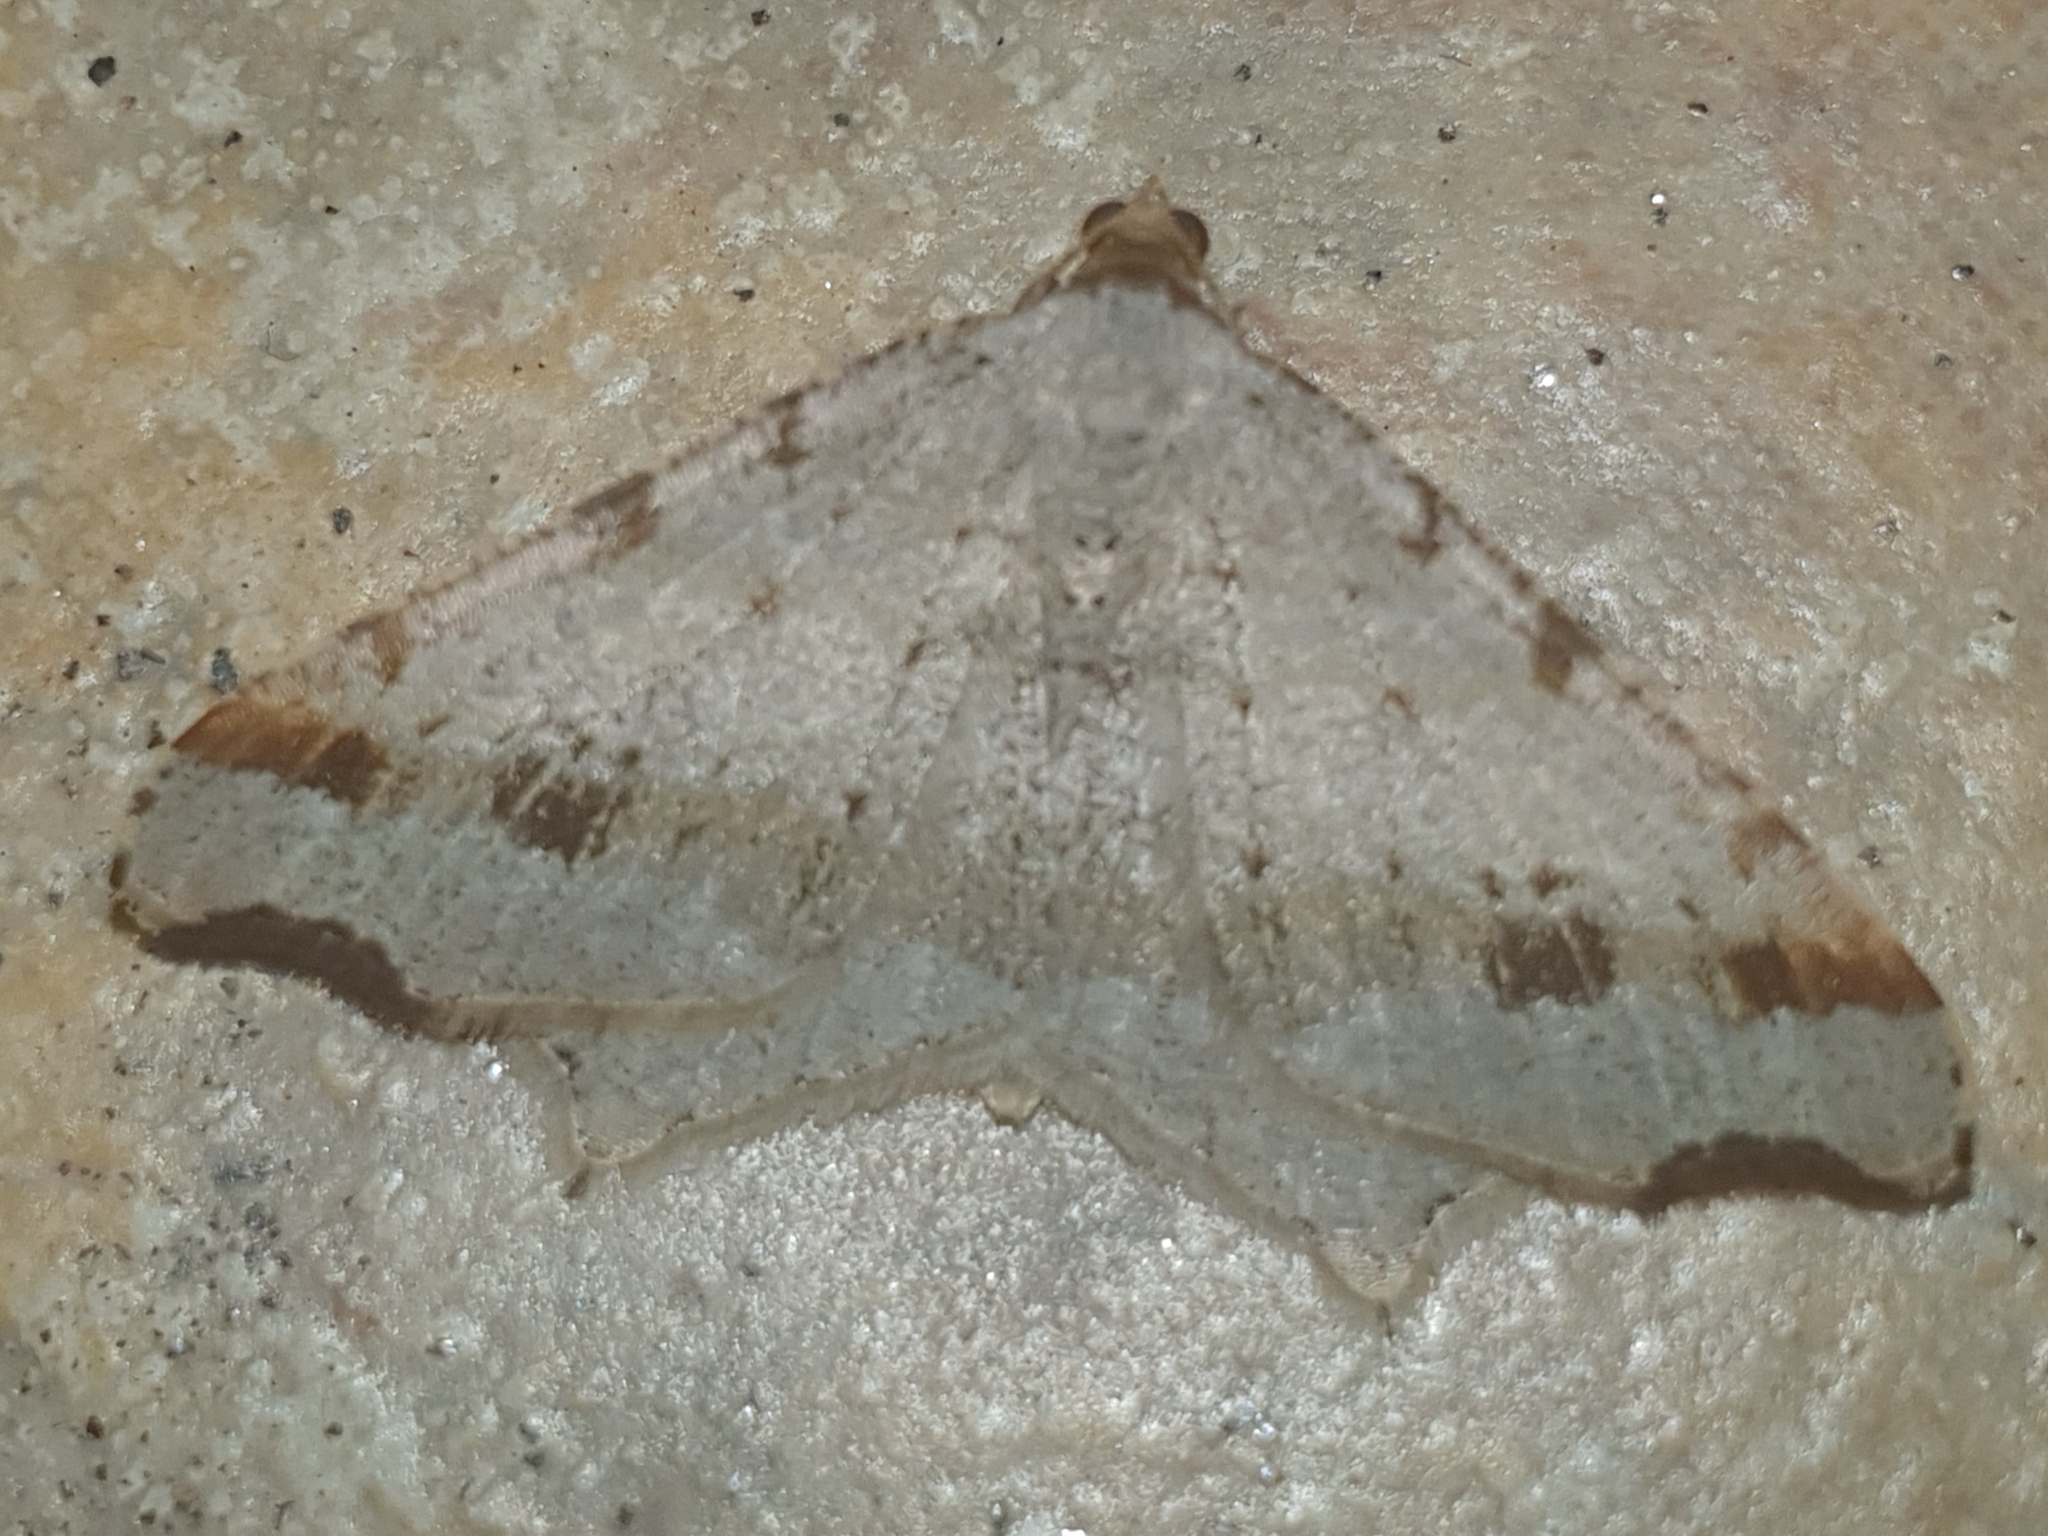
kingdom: Animalia
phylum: Arthropoda
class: Insecta
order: Lepidoptera
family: Geometridae
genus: Macaria
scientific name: Macaria alternata
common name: Sharp-angled peacock
